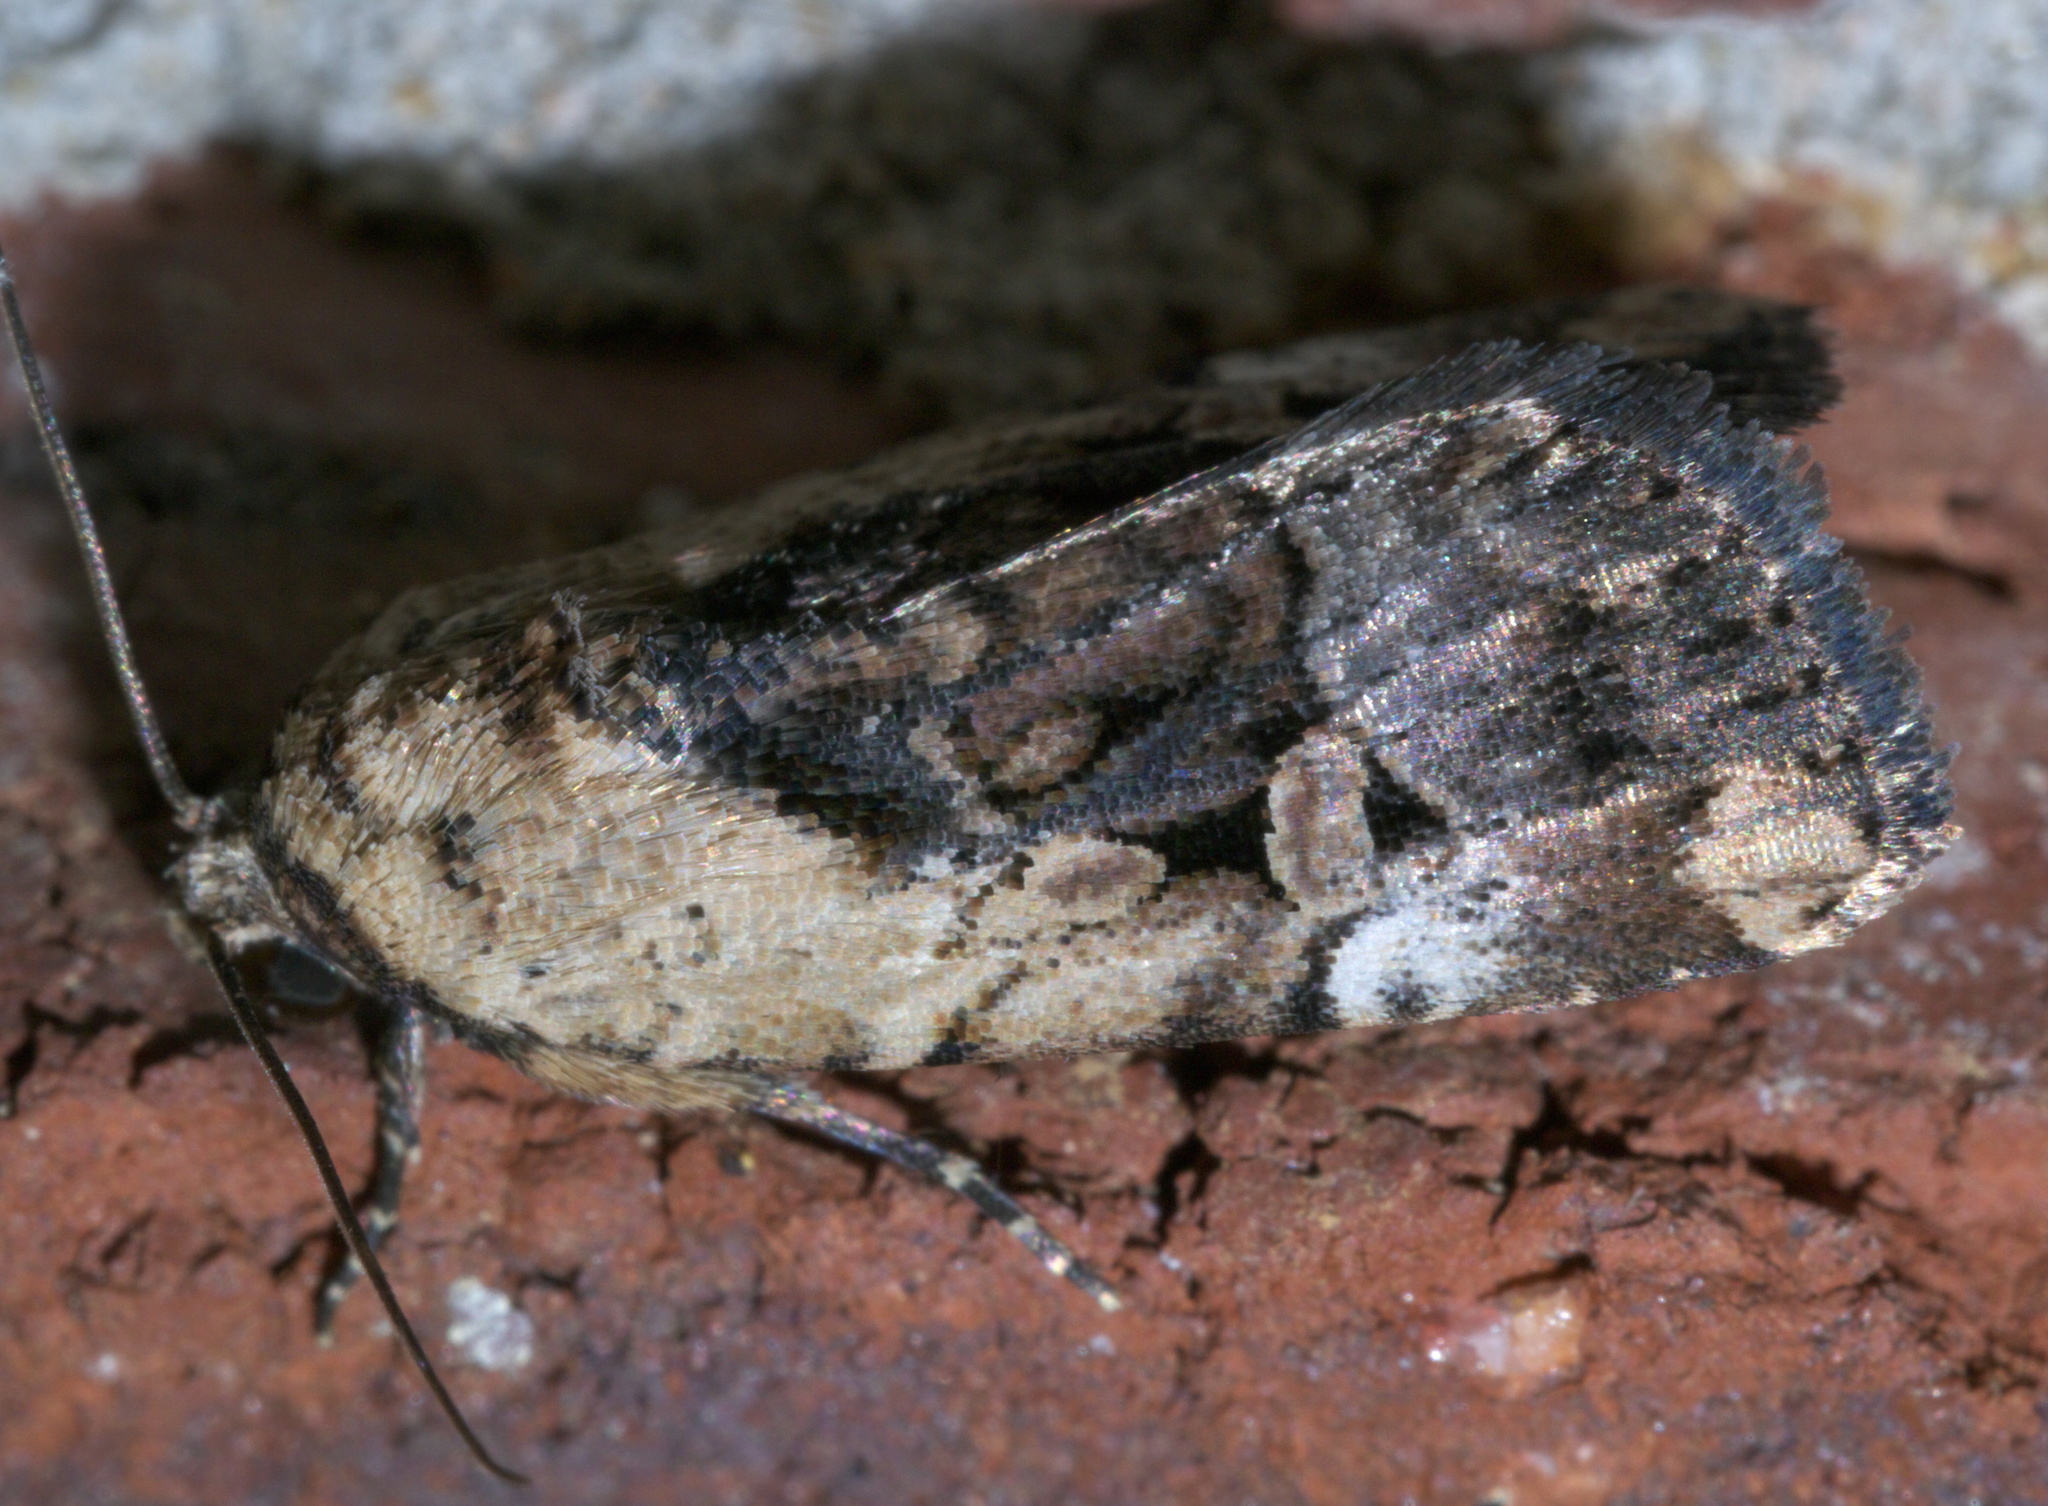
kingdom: Animalia
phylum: Arthropoda
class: Insecta
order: Lepidoptera
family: Noctuidae
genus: Elaphria
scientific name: Elaphria chalcedonia
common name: Chalcedony midget
